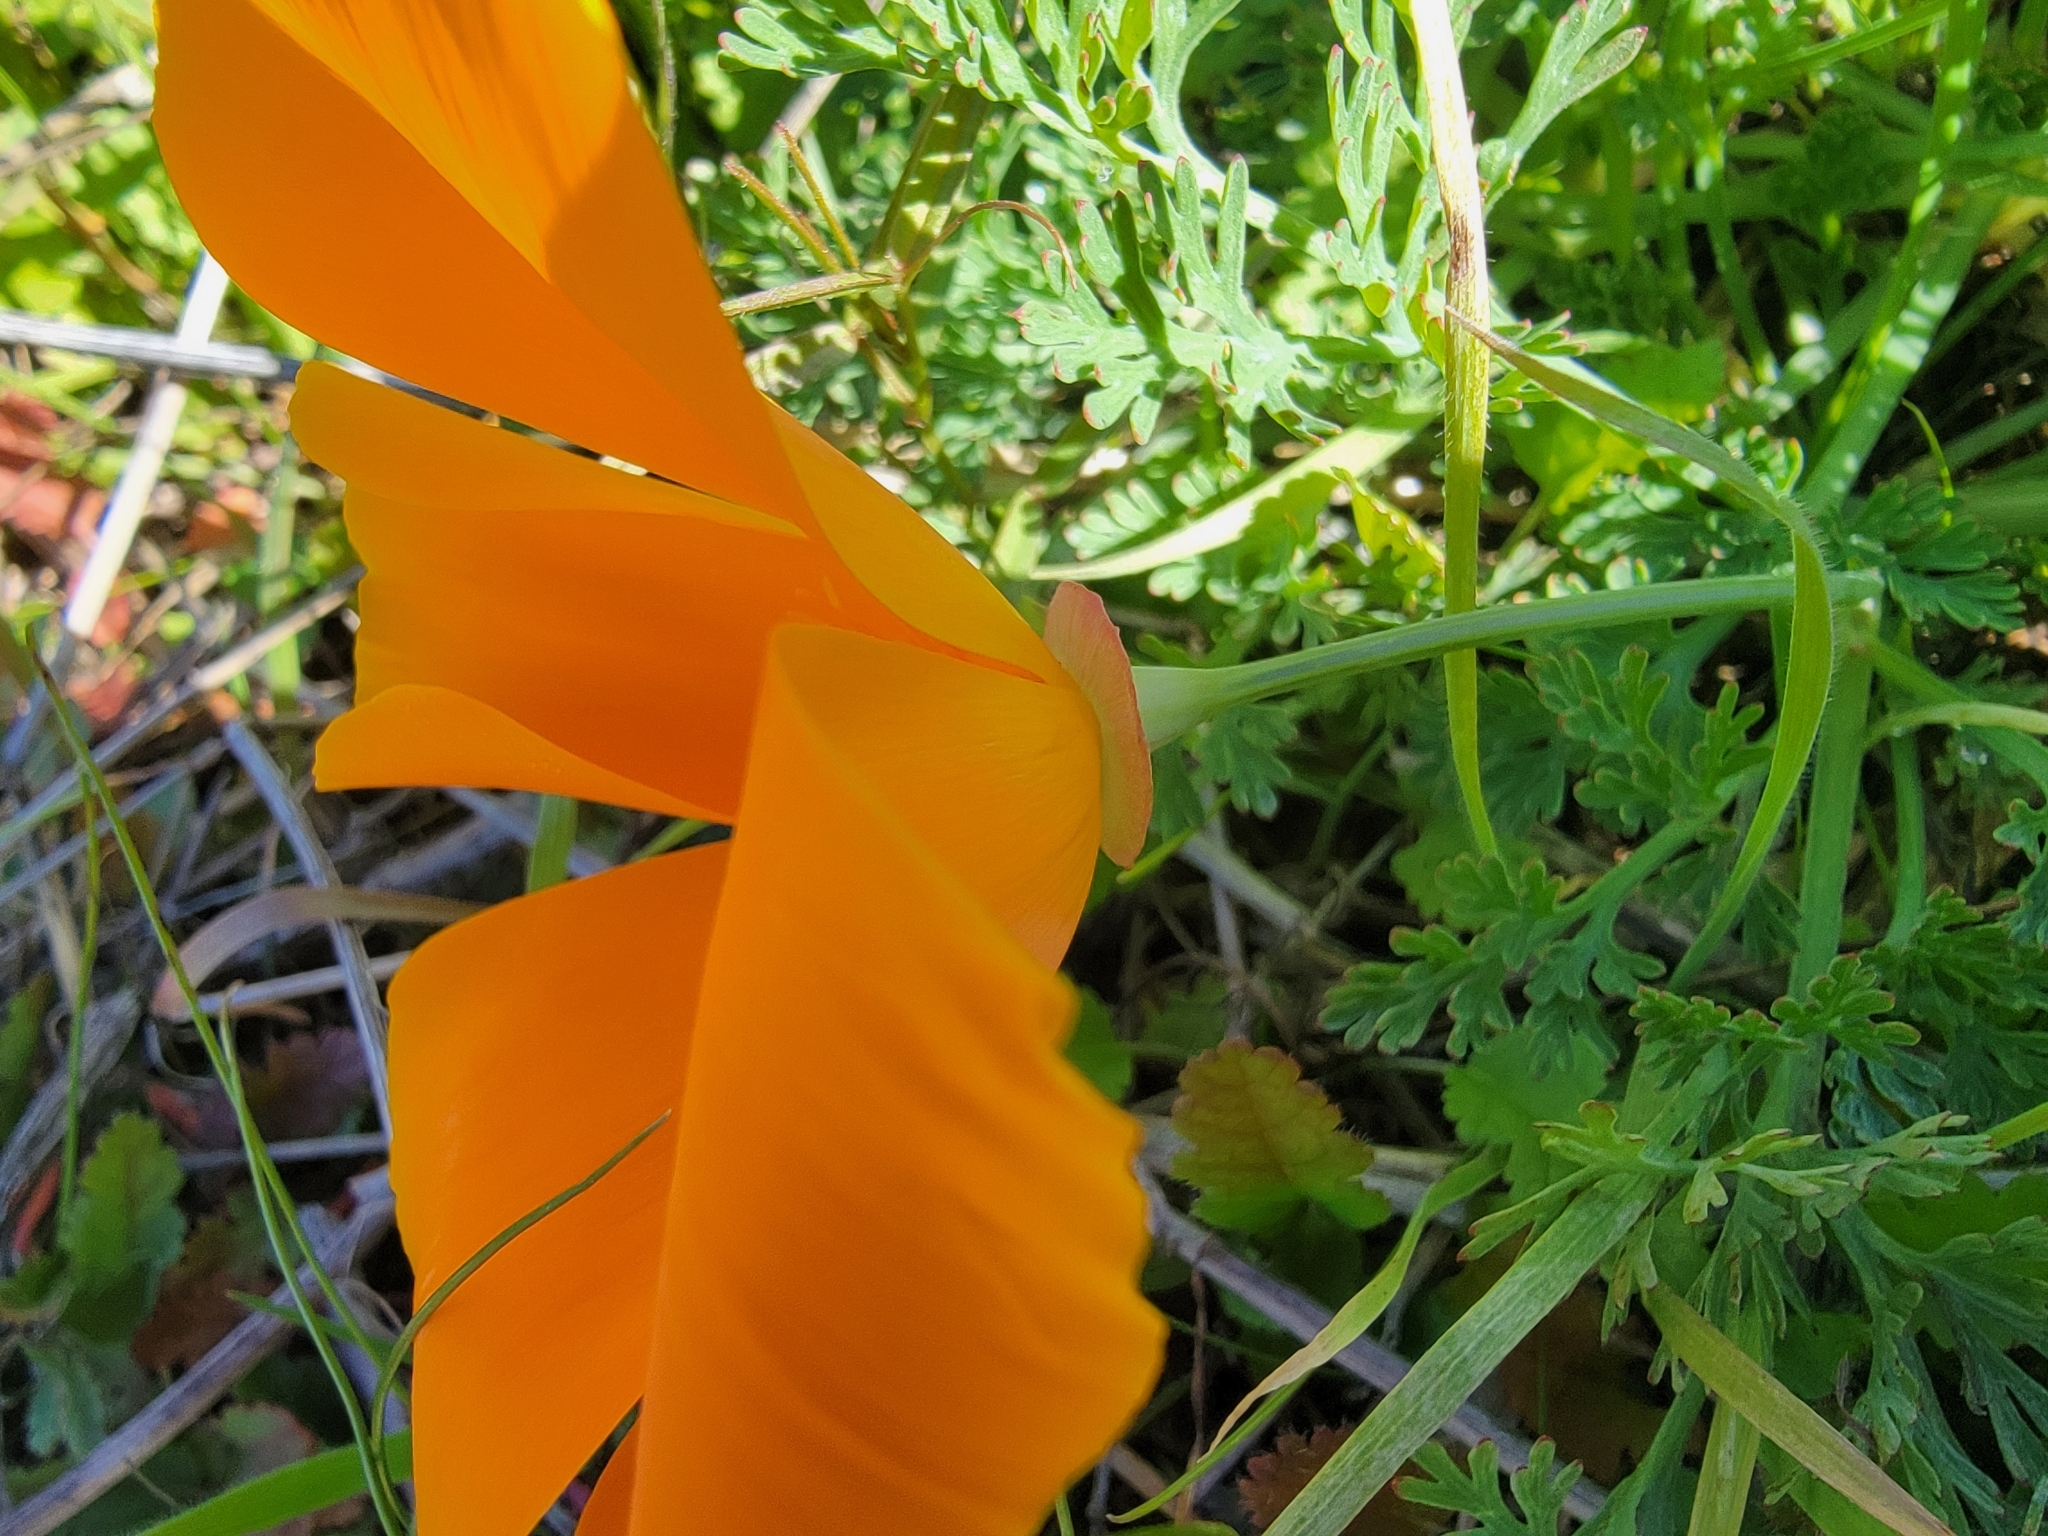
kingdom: Plantae
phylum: Tracheophyta
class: Magnoliopsida
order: Ranunculales
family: Papaveraceae
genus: Eschscholzia
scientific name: Eschscholzia californica
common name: California poppy
